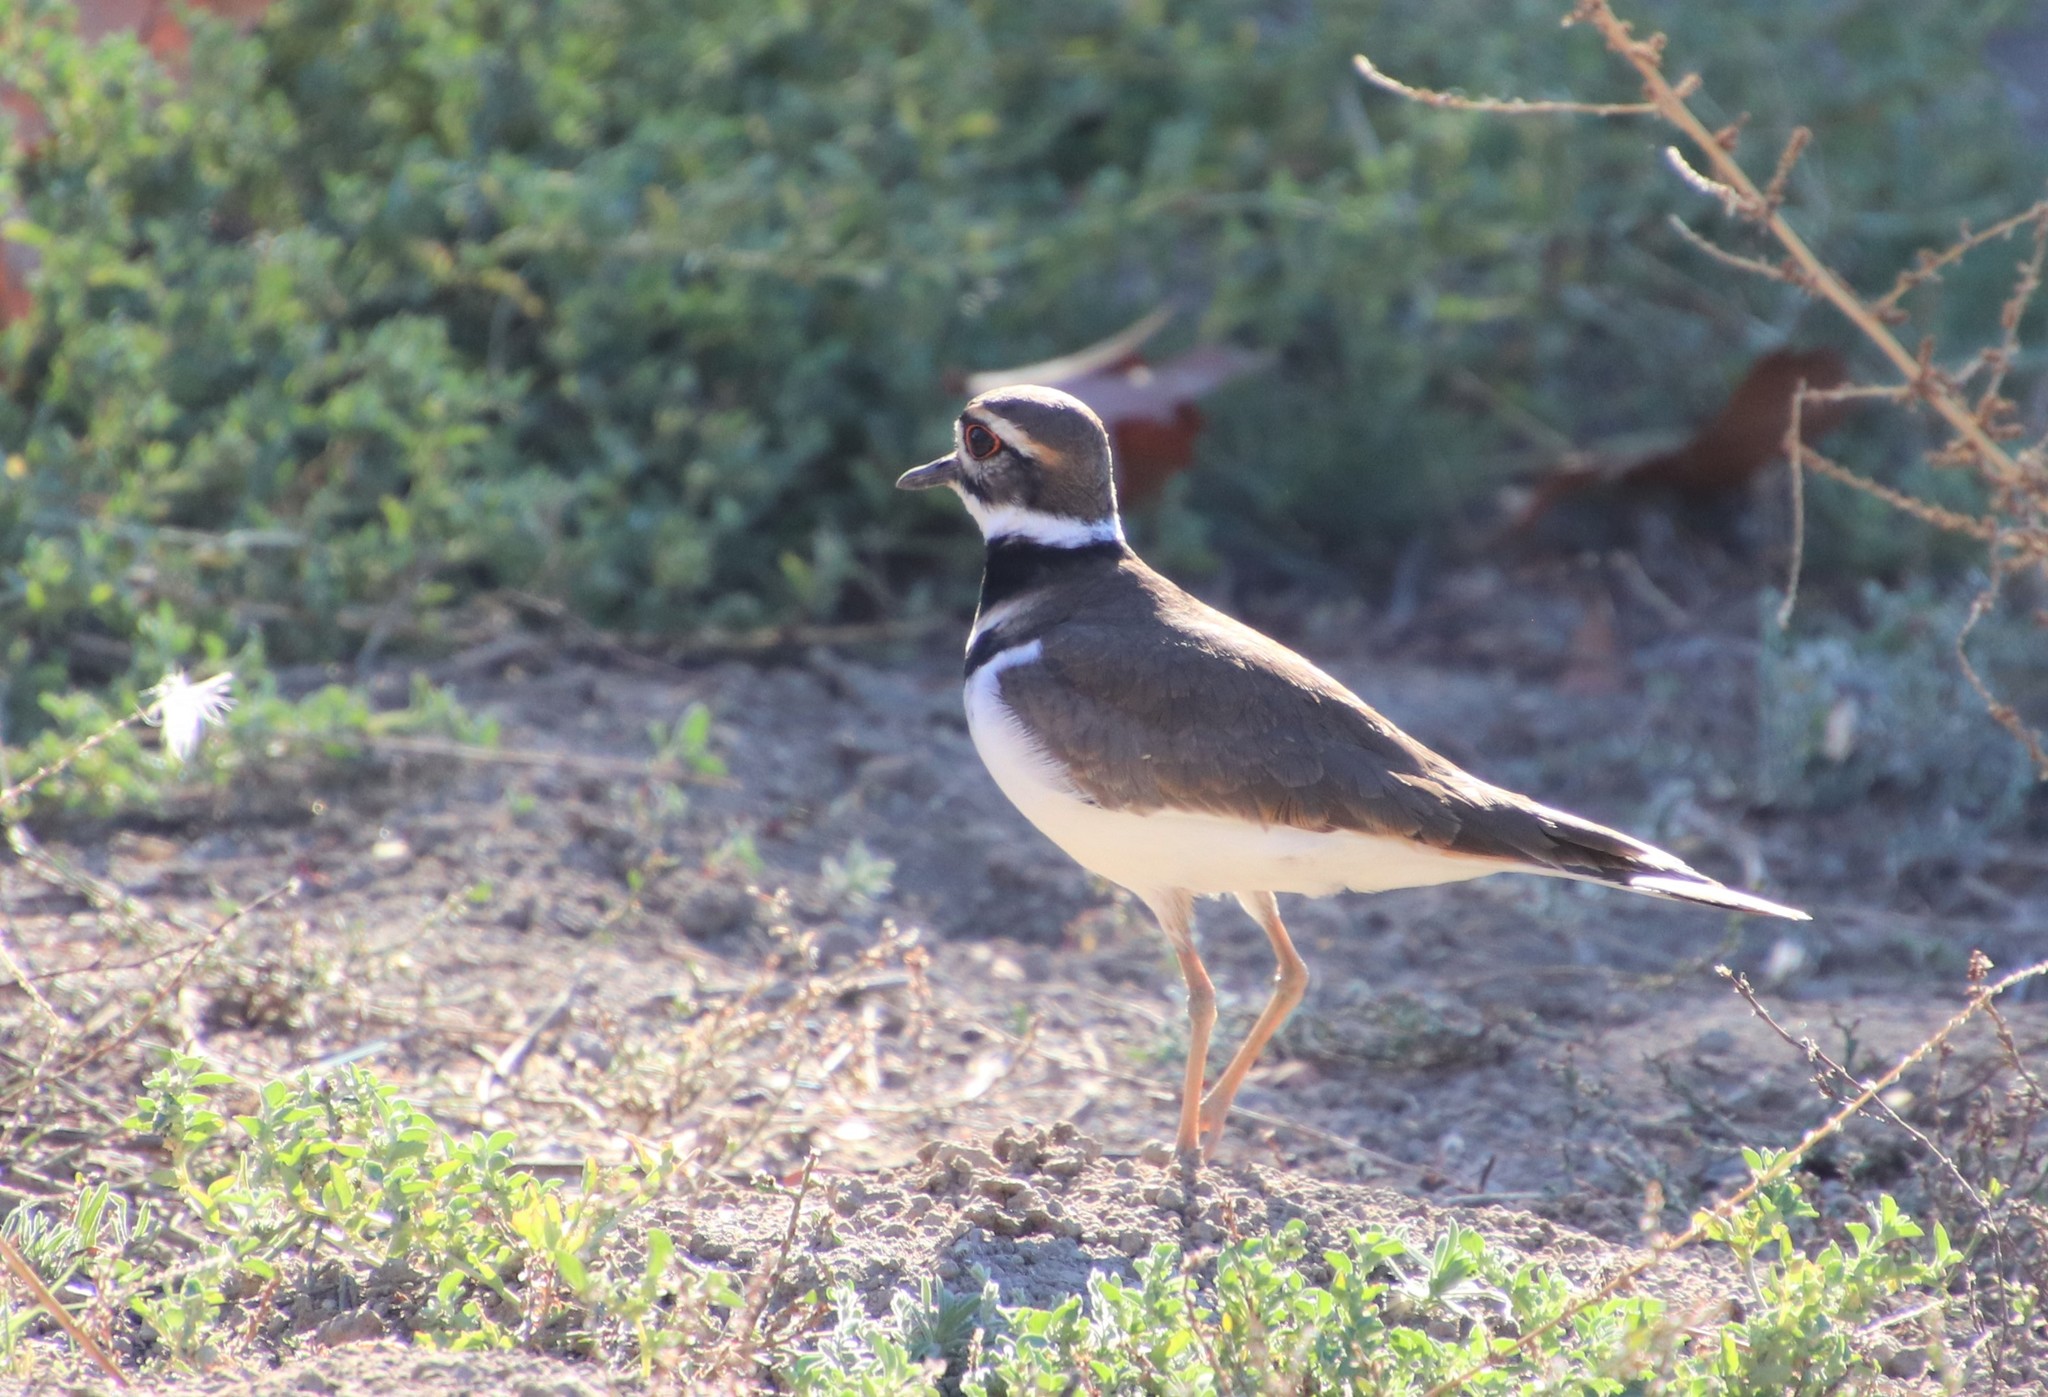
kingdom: Animalia
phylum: Chordata
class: Aves
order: Charadriiformes
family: Charadriidae
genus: Charadrius
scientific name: Charadrius vociferus
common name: Killdeer
